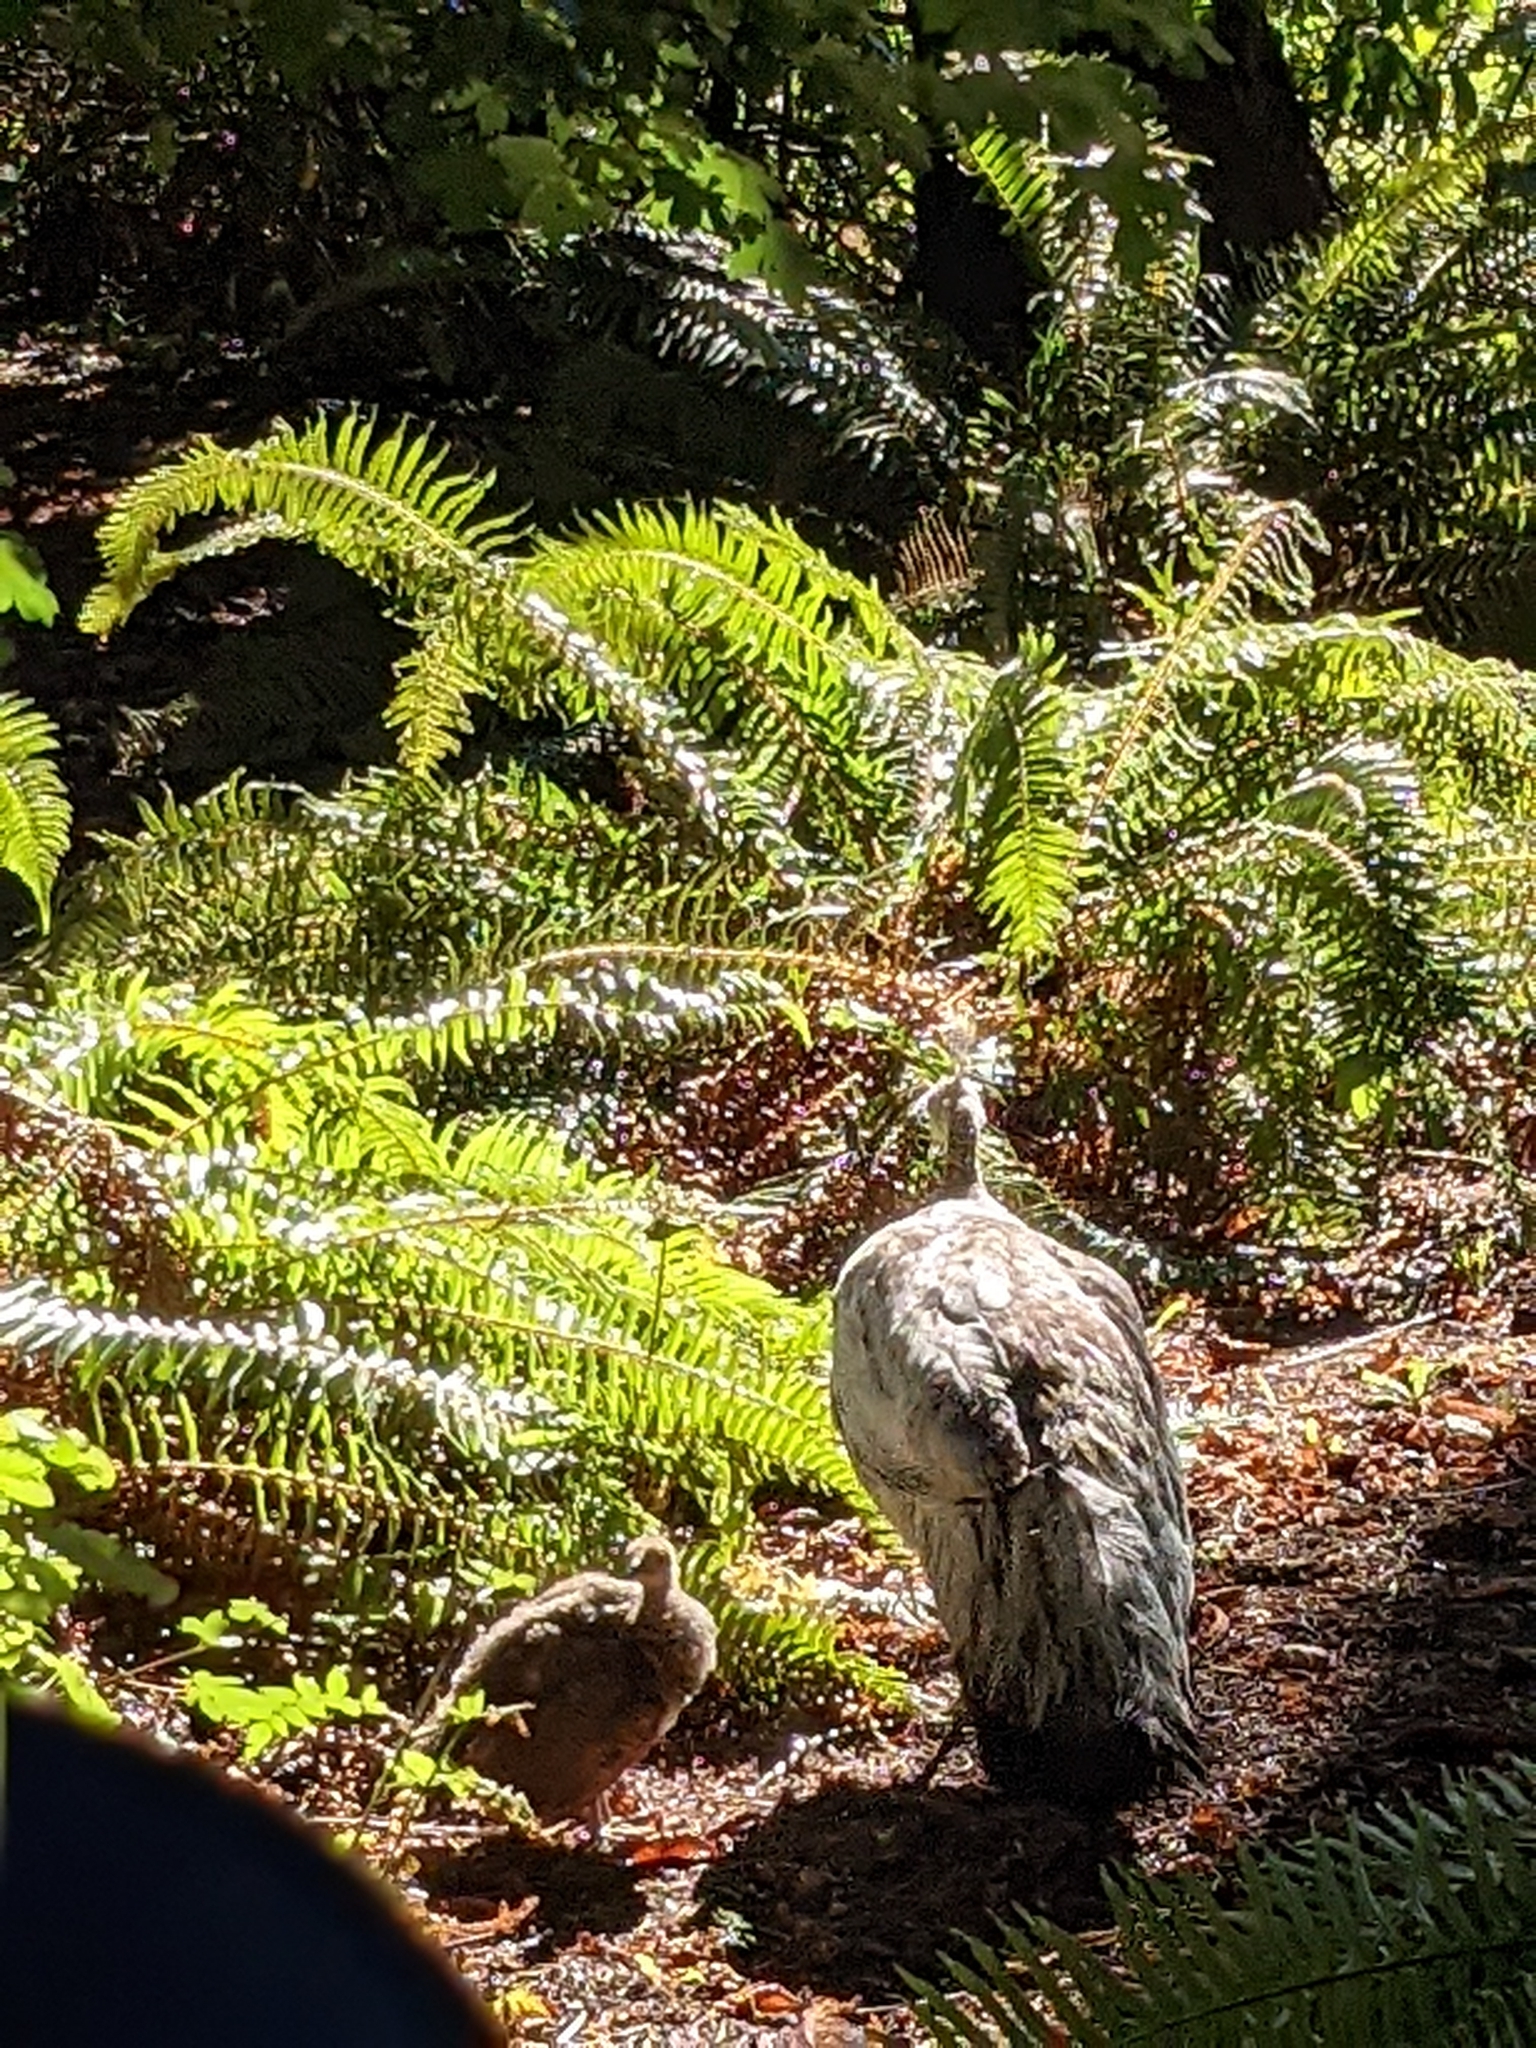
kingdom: Animalia
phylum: Chordata
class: Aves
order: Galliformes
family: Phasianidae
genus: Pavo
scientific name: Pavo cristatus
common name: Indian peafowl
